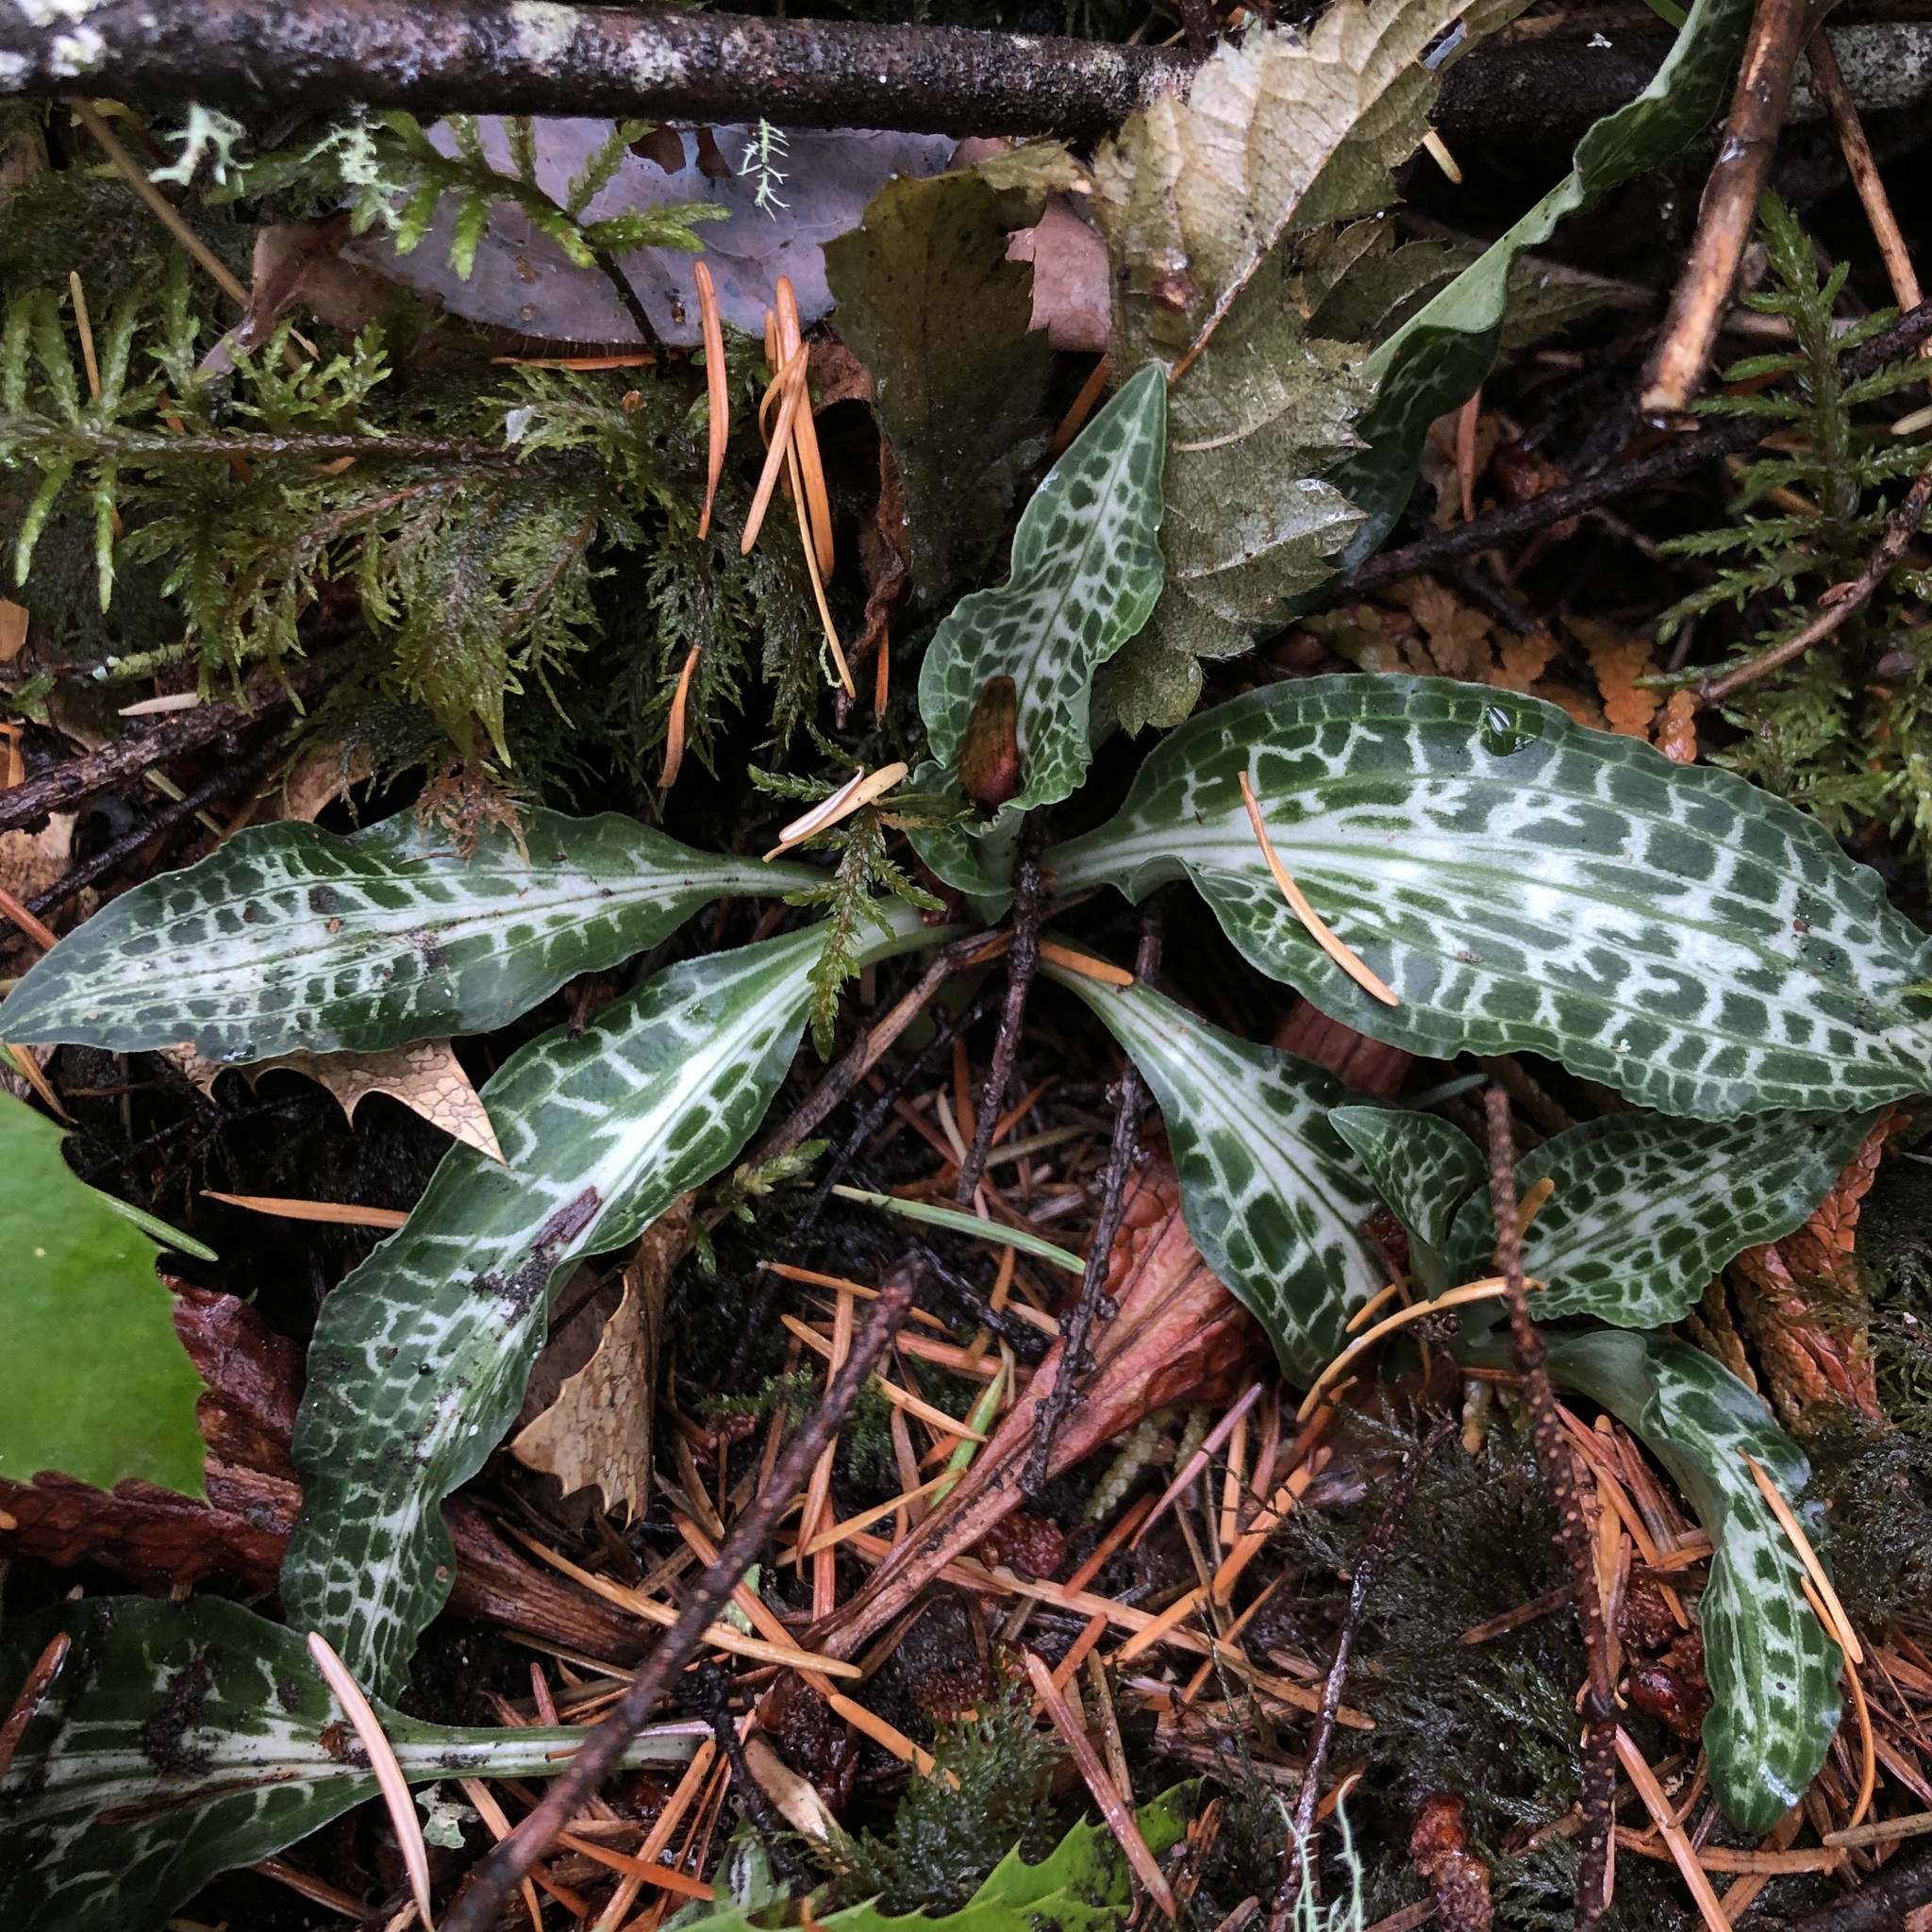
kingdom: Plantae
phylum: Tracheophyta
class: Liliopsida
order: Asparagales
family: Orchidaceae
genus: Goodyera
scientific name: Goodyera oblongifolia
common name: Giant rattlesnake-plantain
